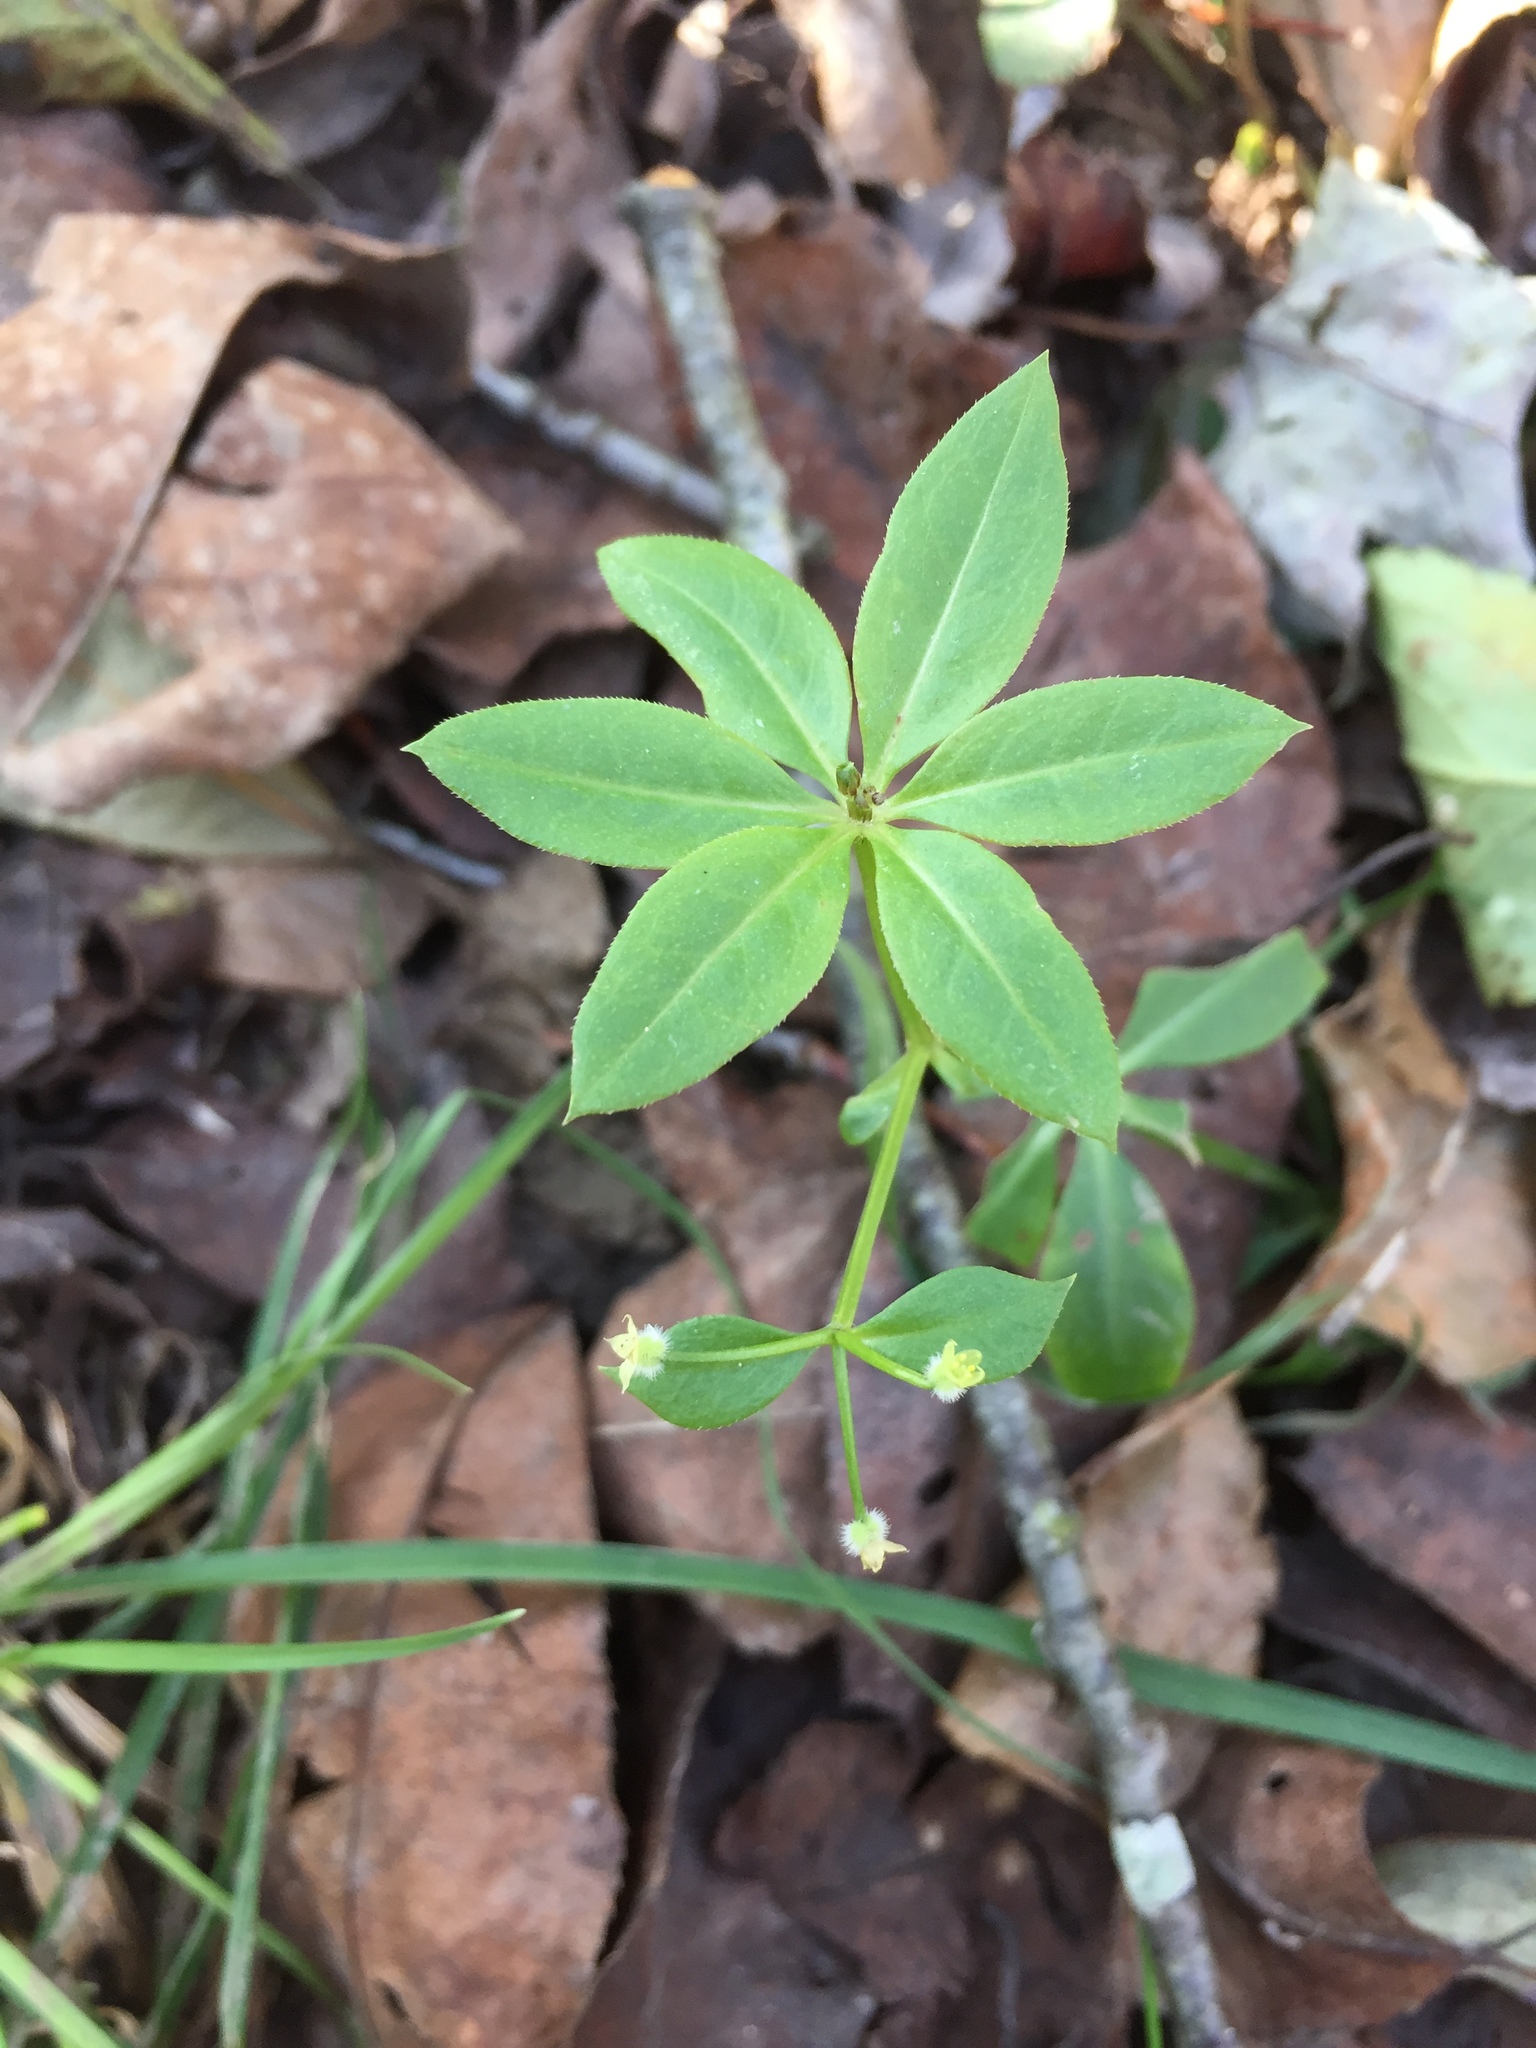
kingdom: Plantae
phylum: Tracheophyta
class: Magnoliopsida
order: Gentianales
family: Rubiaceae
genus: Galium
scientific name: Galium triflorum
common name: Fragrant bedstraw
